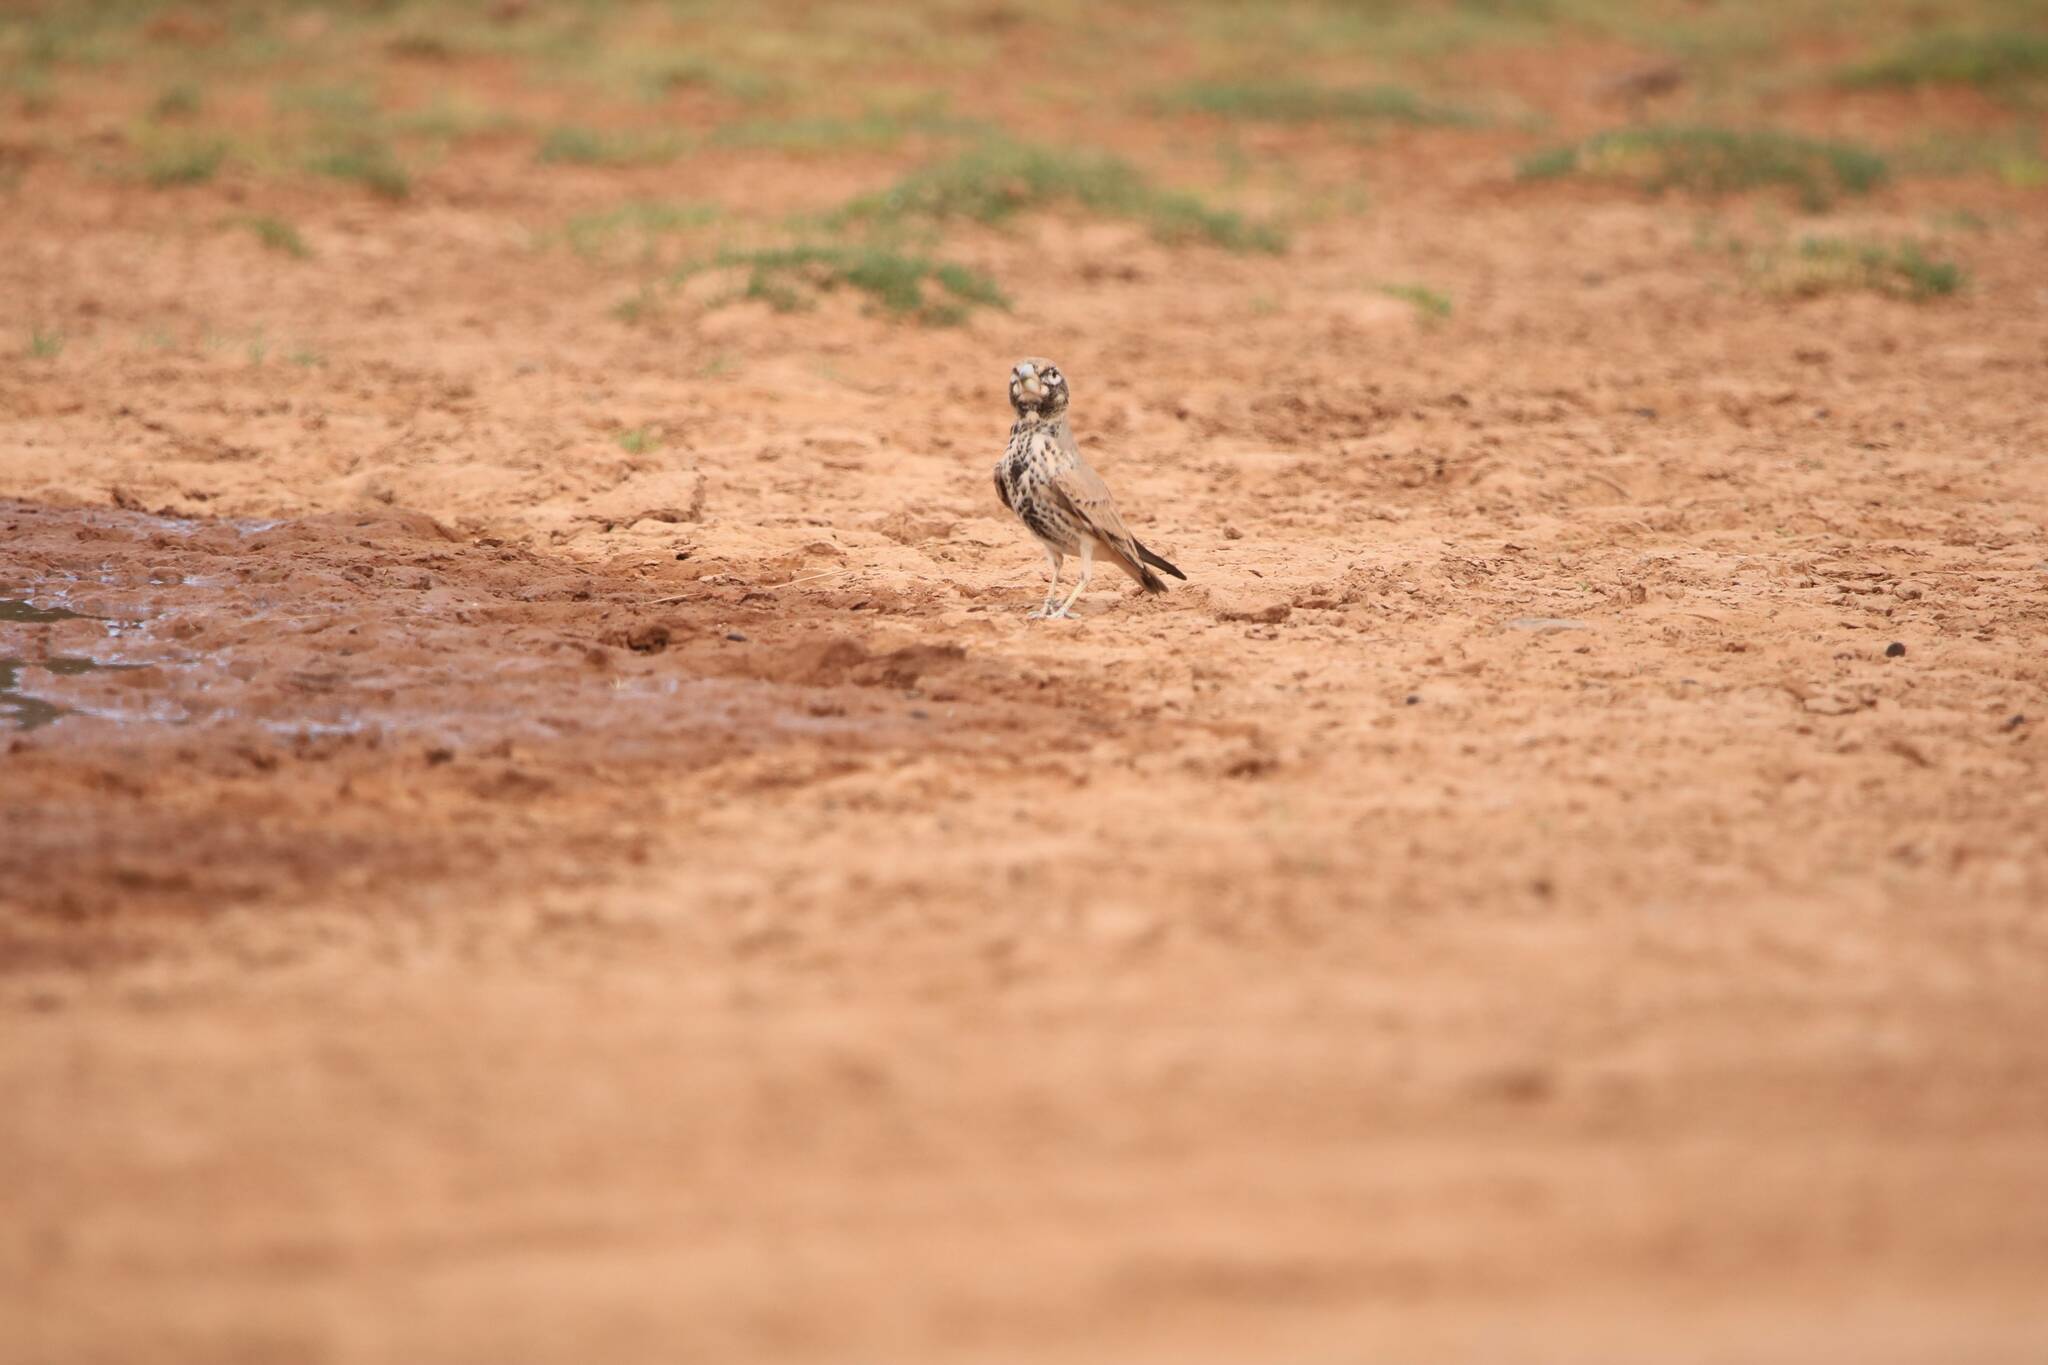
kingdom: Animalia
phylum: Chordata
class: Aves
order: Passeriformes
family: Alaudidae
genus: Ramphocoris
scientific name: Ramphocoris clotbey
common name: Thick-billed lark
